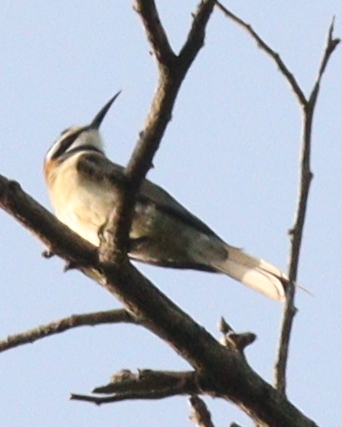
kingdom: Animalia
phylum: Chordata
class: Aves
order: Coraciiformes
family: Meropidae
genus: Merops
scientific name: Merops albicollis
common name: White-throated bee-eater
